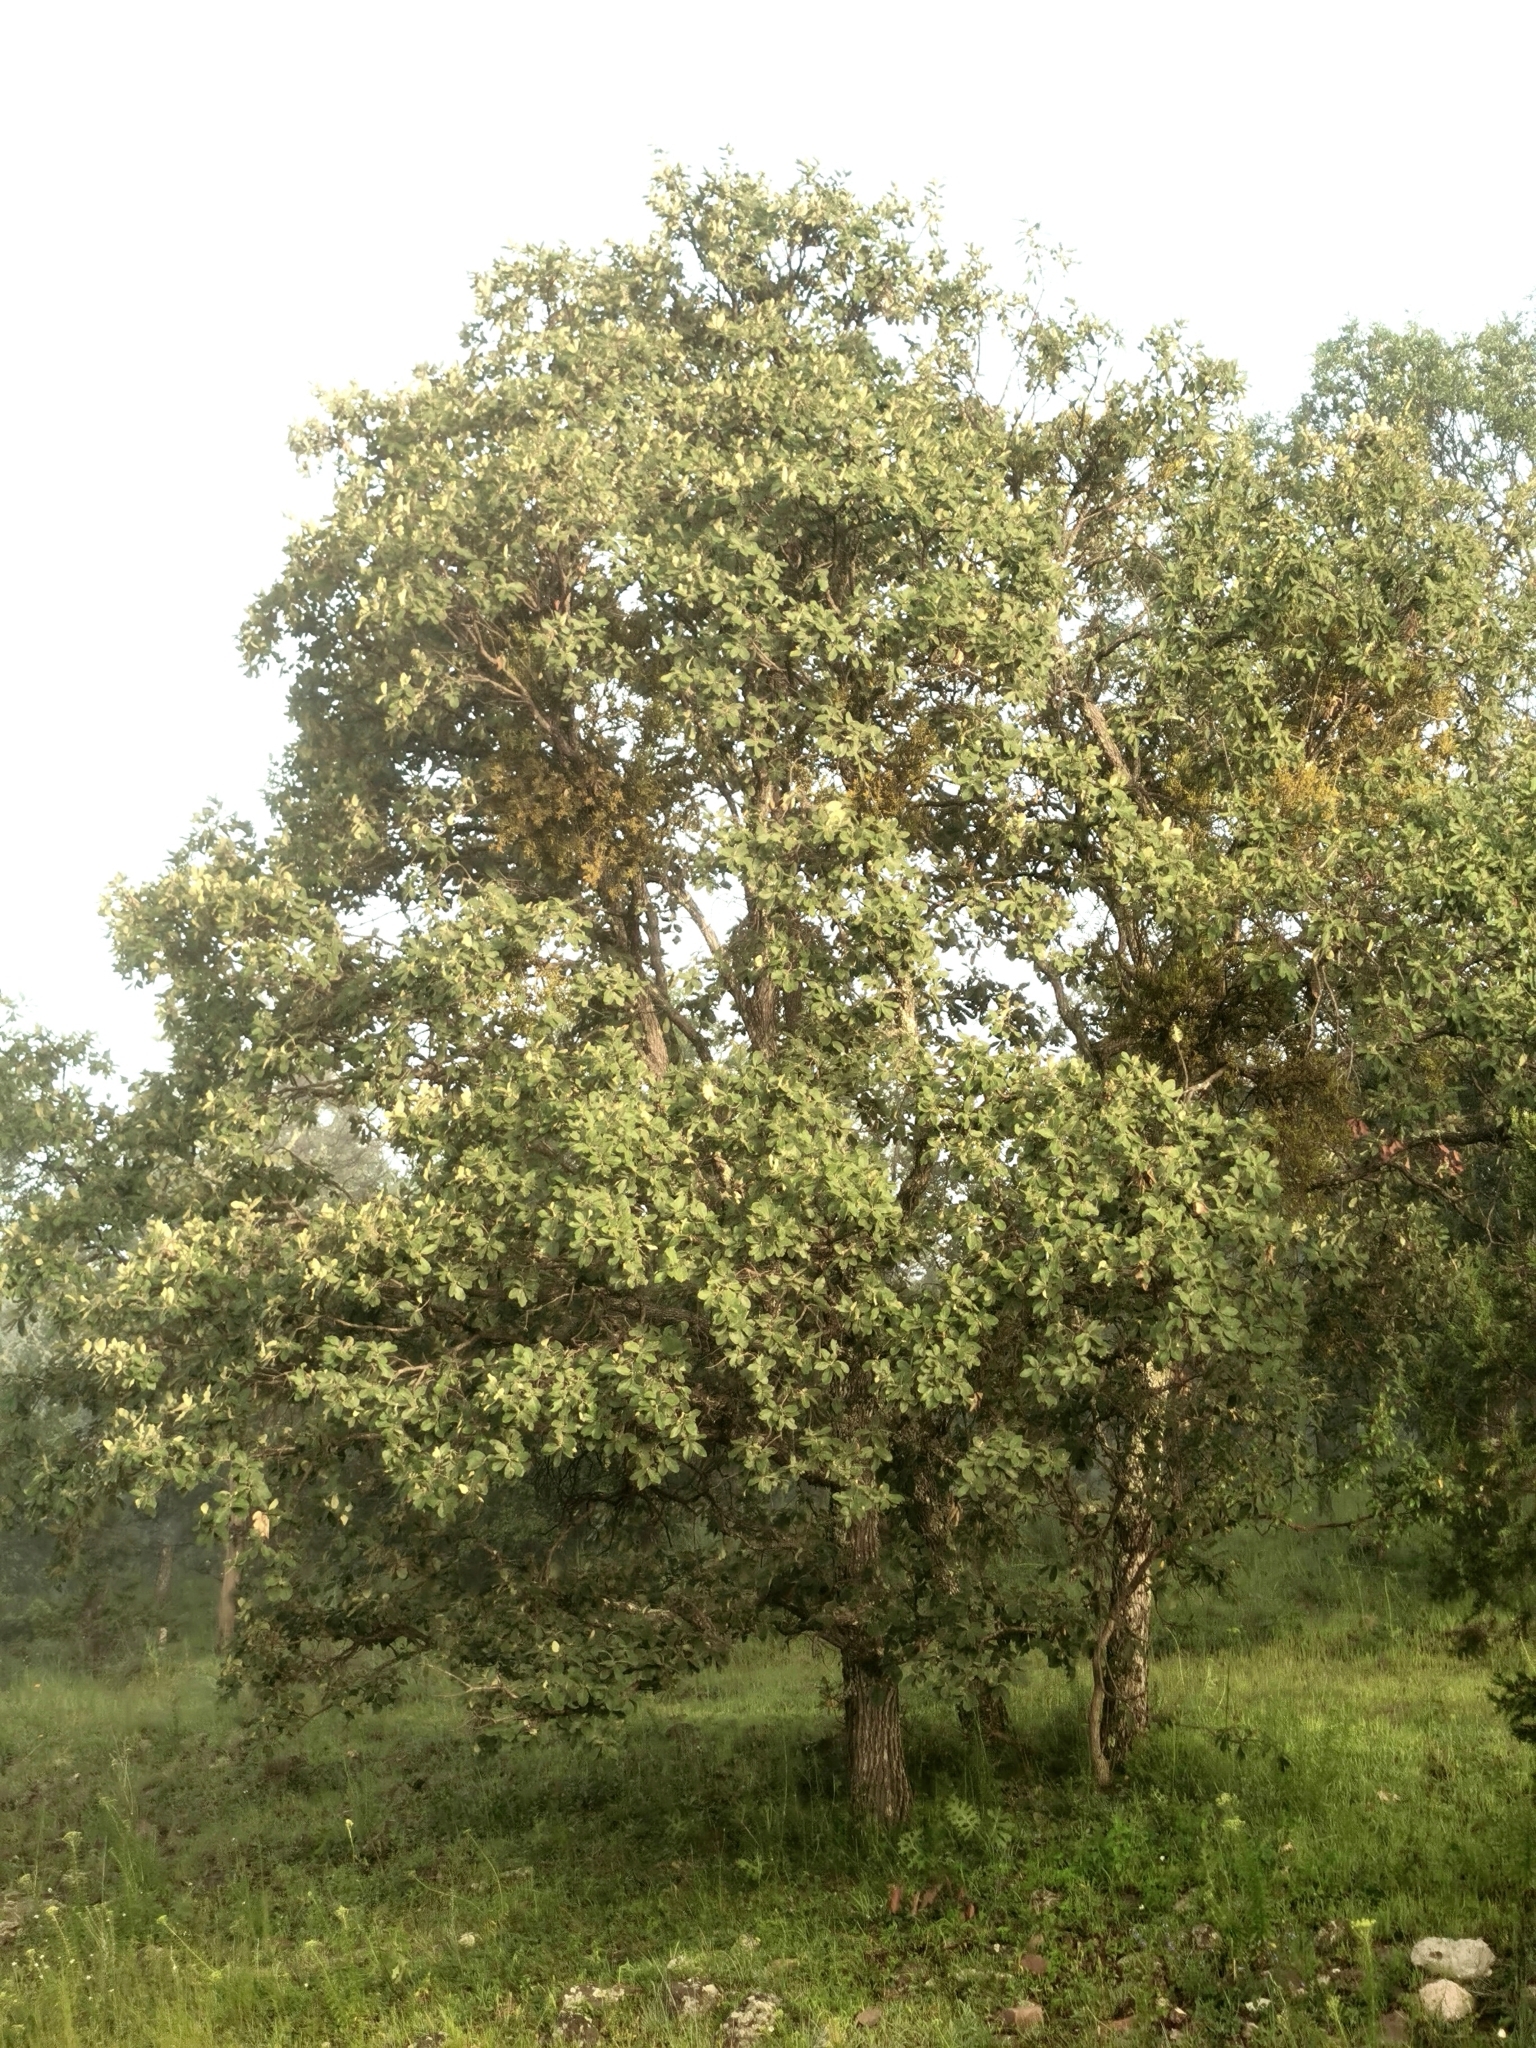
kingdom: Plantae
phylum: Tracheophyta
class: Magnoliopsida
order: Fagales
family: Fagaceae
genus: Quercus
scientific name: Quercus convallata
